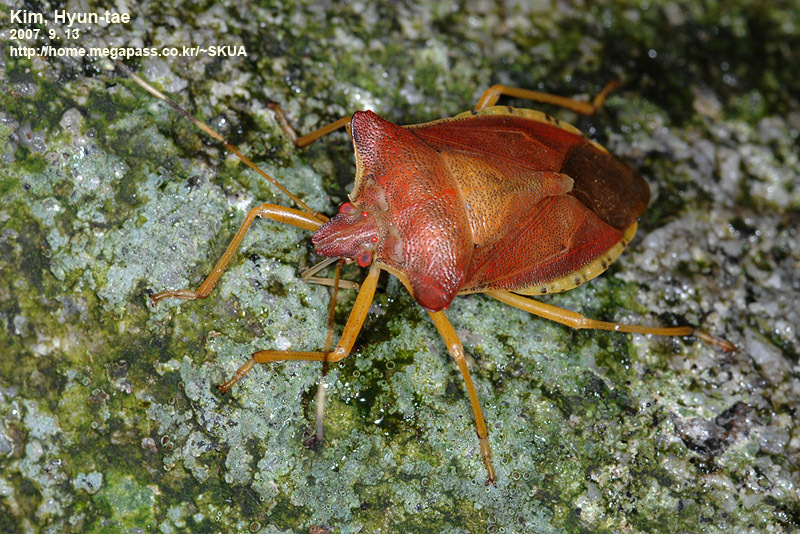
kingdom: Animalia
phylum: Arthropoda
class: Insecta
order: Hemiptera
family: Pentatomidae
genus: Pentatoma
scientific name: Pentatoma
